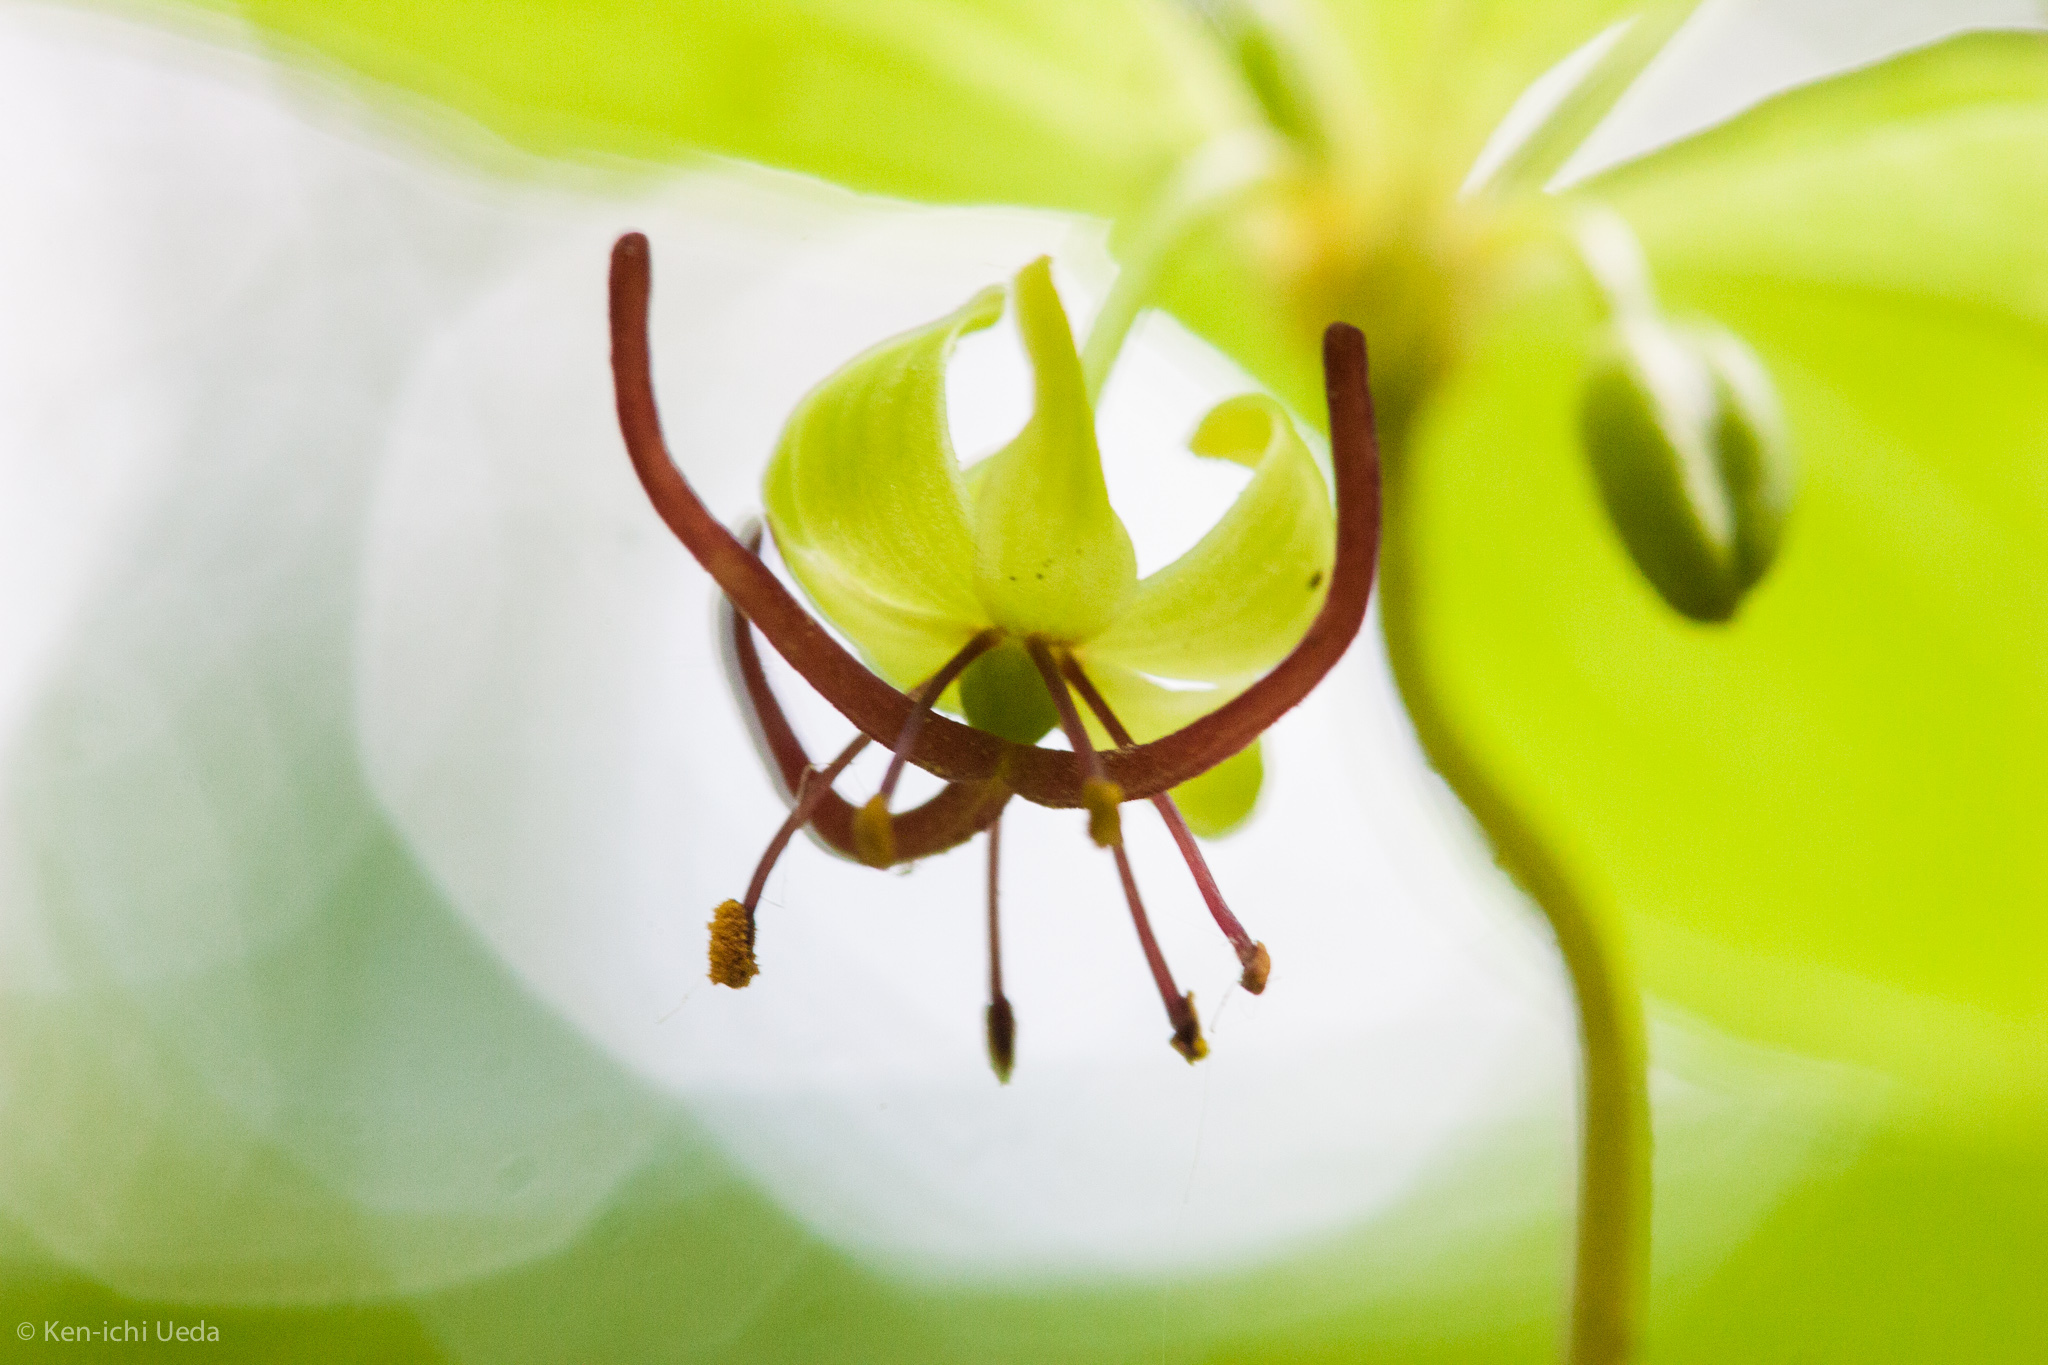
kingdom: Plantae
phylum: Tracheophyta
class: Liliopsida
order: Liliales
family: Liliaceae
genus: Medeola
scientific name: Medeola virginiana
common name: Indian cucumber-root
